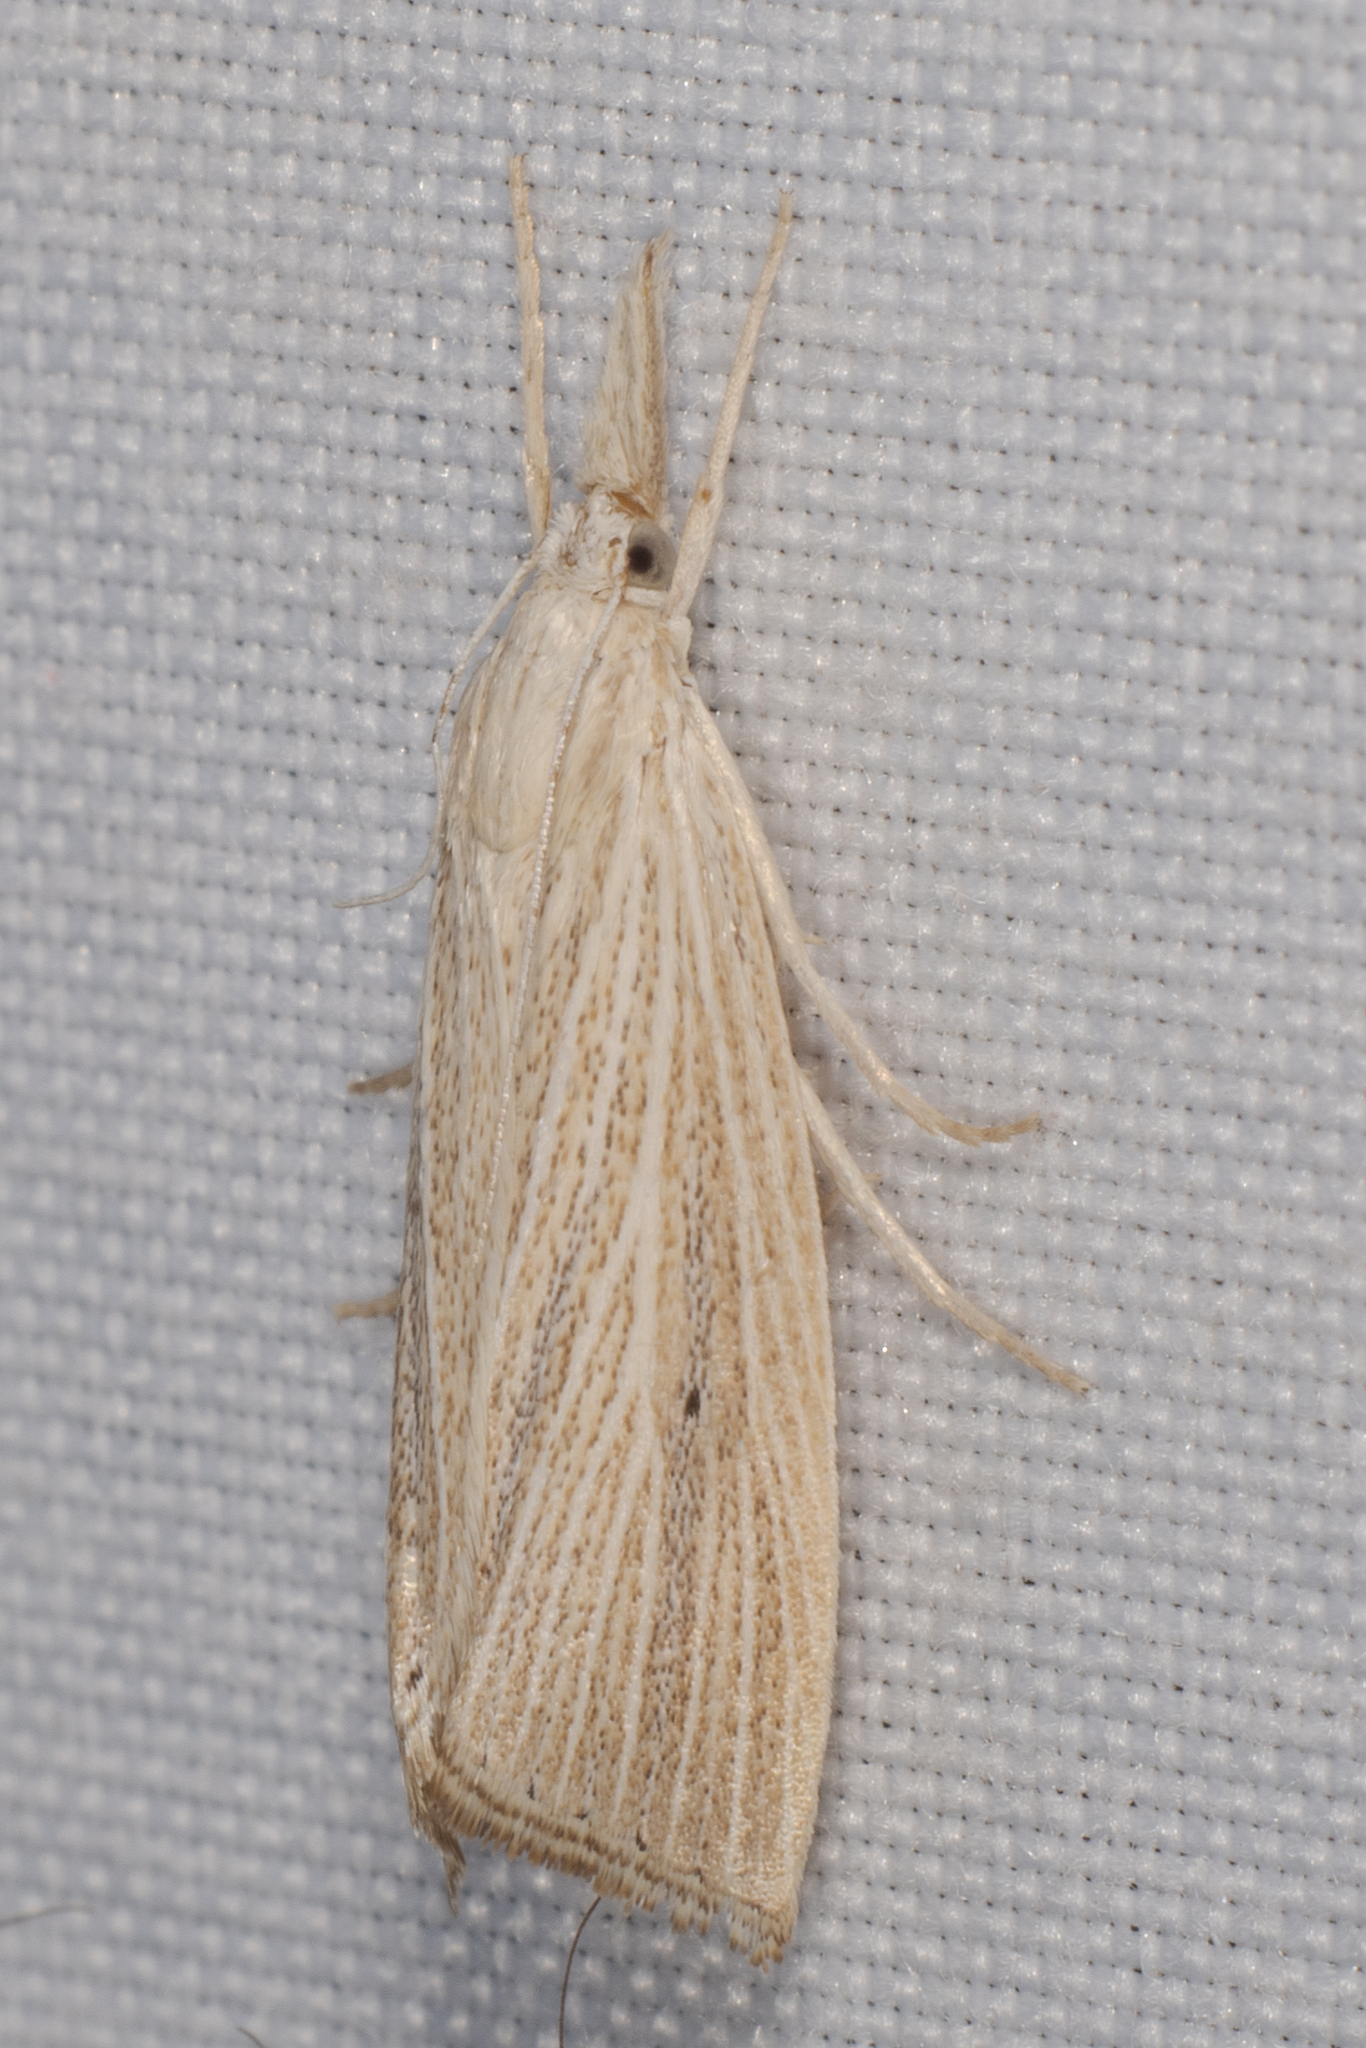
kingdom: Animalia
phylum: Arthropoda
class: Insecta
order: Lepidoptera
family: Crambidae
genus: Eoreuma
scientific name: Eoreuma densellus
